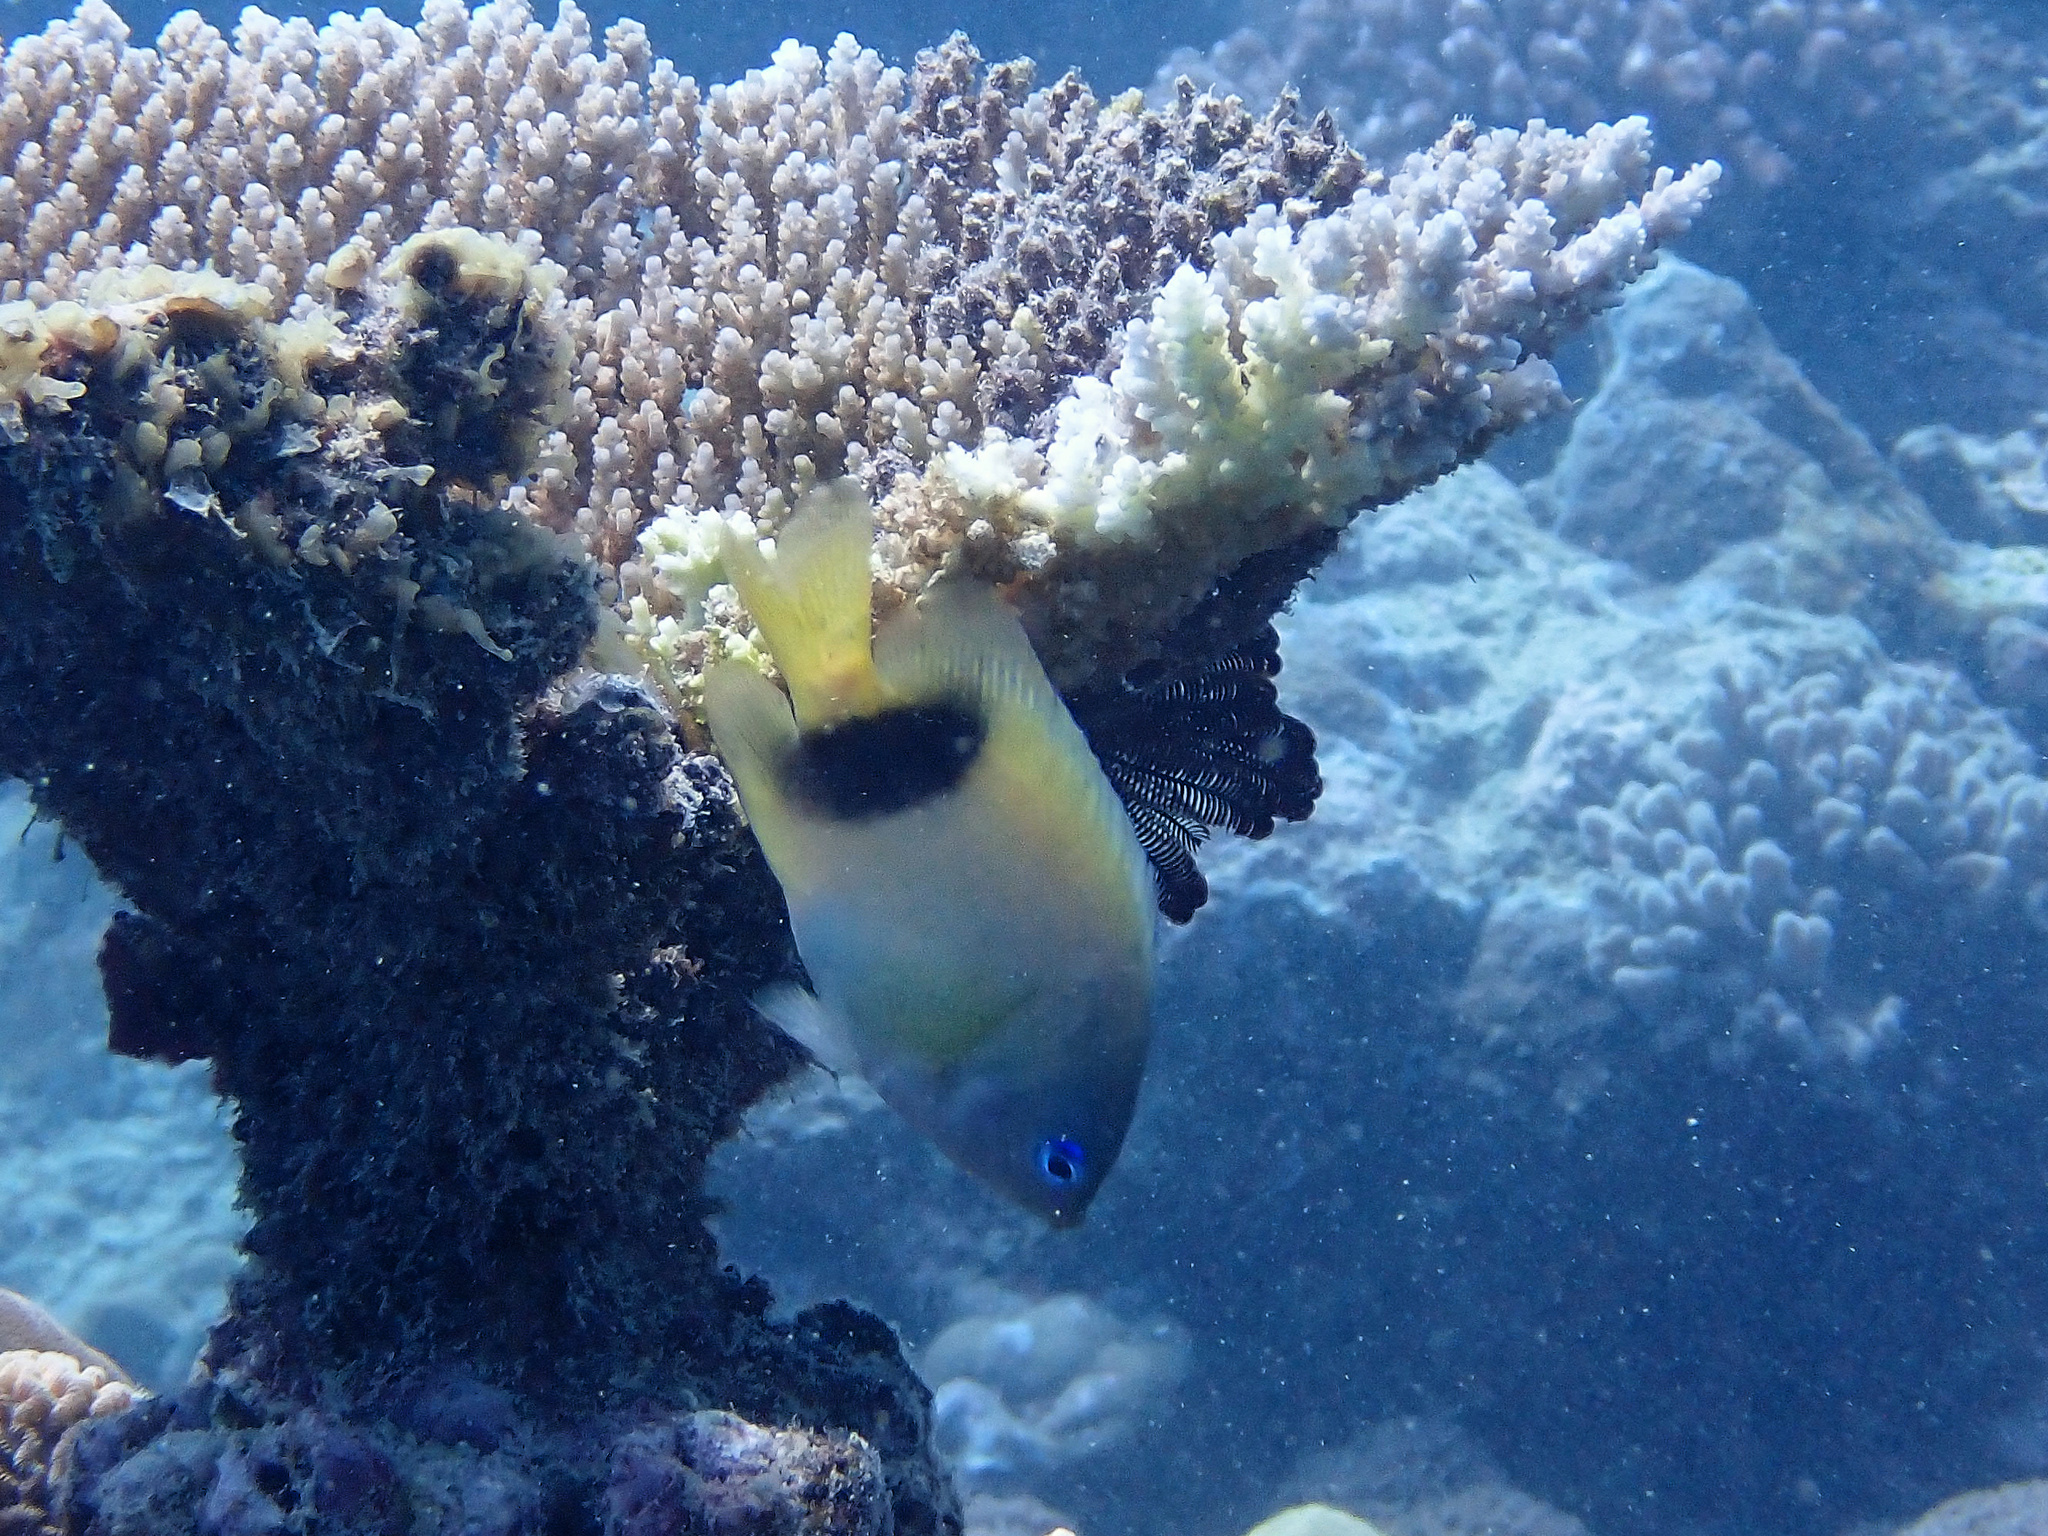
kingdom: Animalia
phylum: Chordata
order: Perciformes
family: Pomacentridae
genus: Plectroglyphidodon
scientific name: Plectroglyphidodon johnstonianus
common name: Johnston damsel
